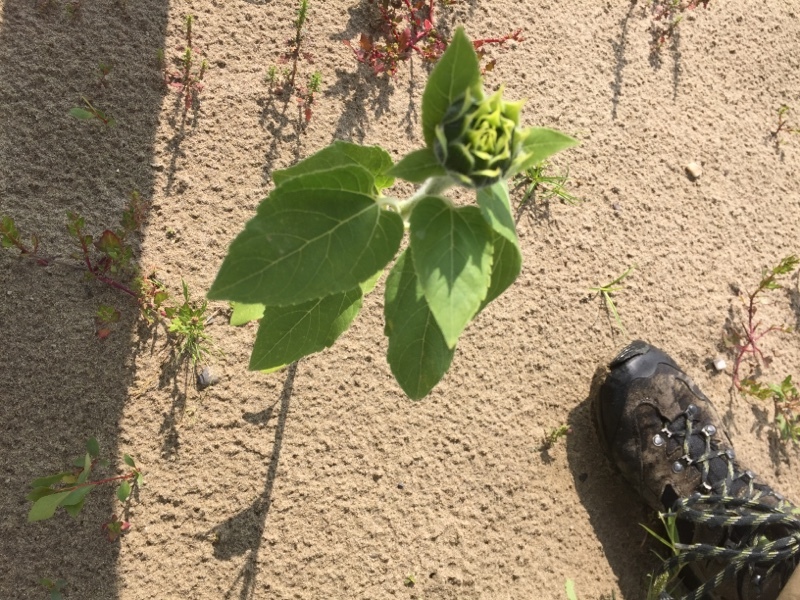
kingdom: Plantae
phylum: Tracheophyta
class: Magnoliopsida
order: Asterales
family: Asteraceae
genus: Helianthus
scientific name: Helianthus annuus
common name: Sunflower
